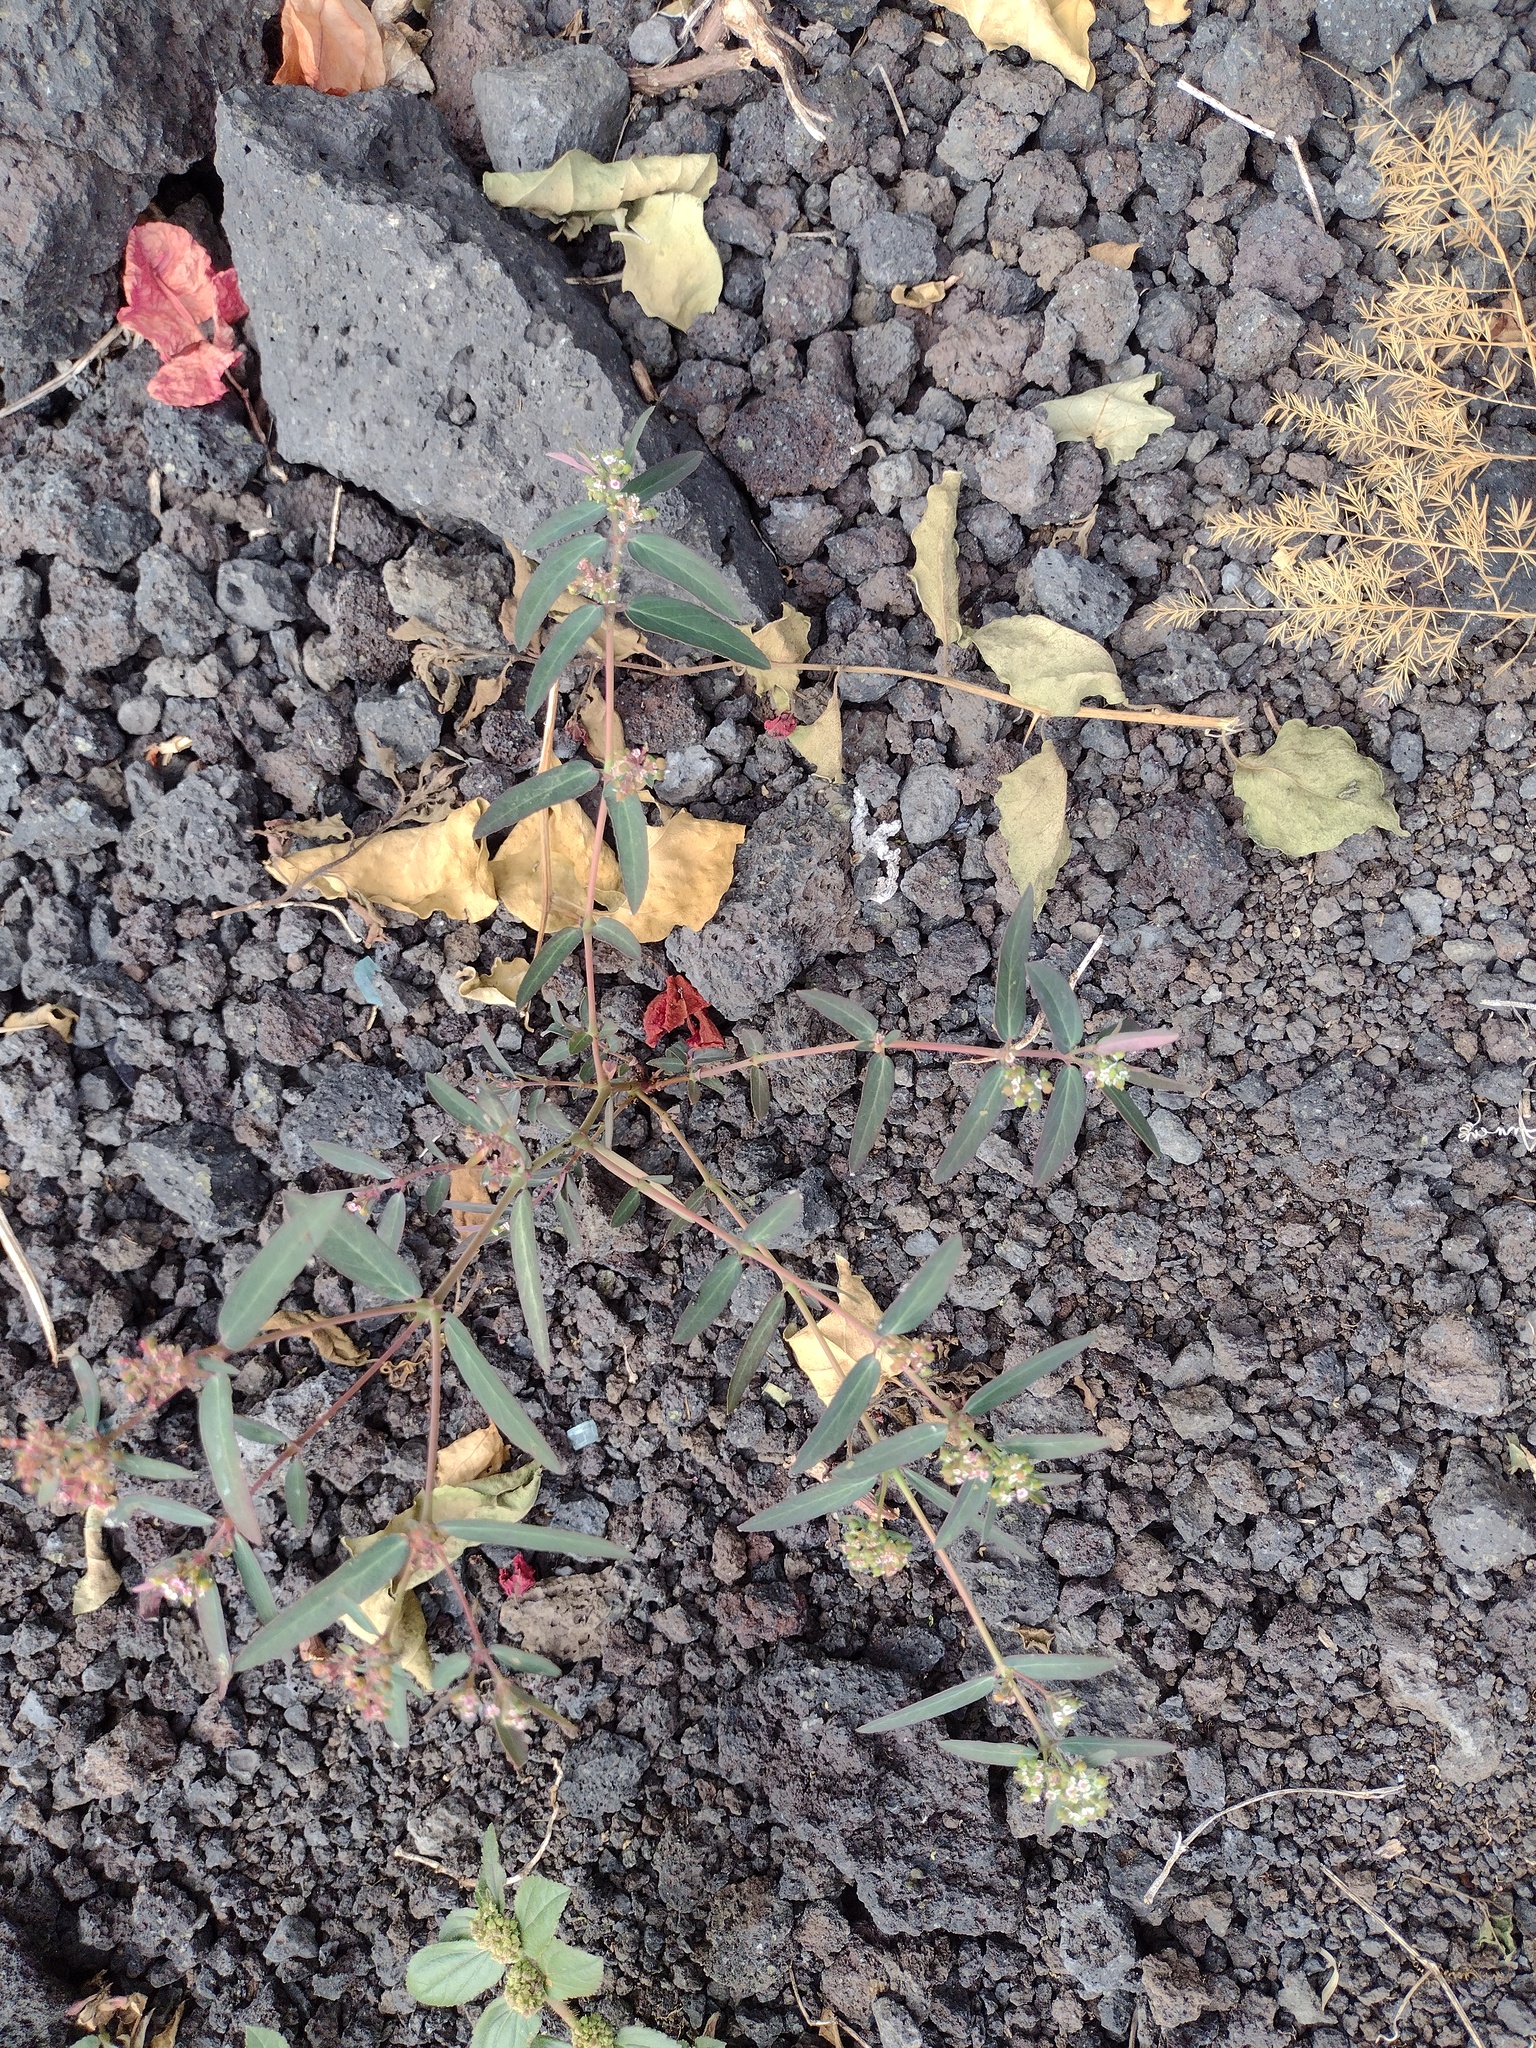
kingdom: Plantae
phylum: Tracheophyta
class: Magnoliopsida
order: Malpighiales
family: Euphorbiaceae
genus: Euphorbia
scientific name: Euphorbia hypericifolia
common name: Graceful sandmat
